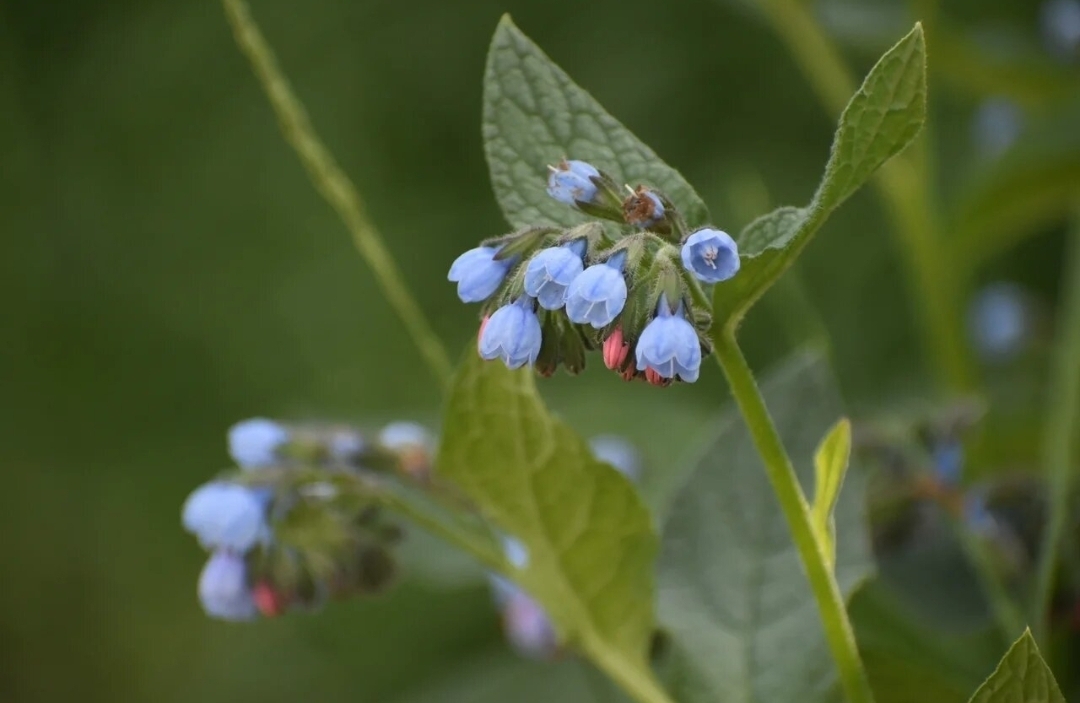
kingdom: Plantae
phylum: Tracheophyta
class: Magnoliopsida
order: Boraginales
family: Boraginaceae
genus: Symphytum
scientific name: Symphytum caucasicum
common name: Caucasian comfrey
